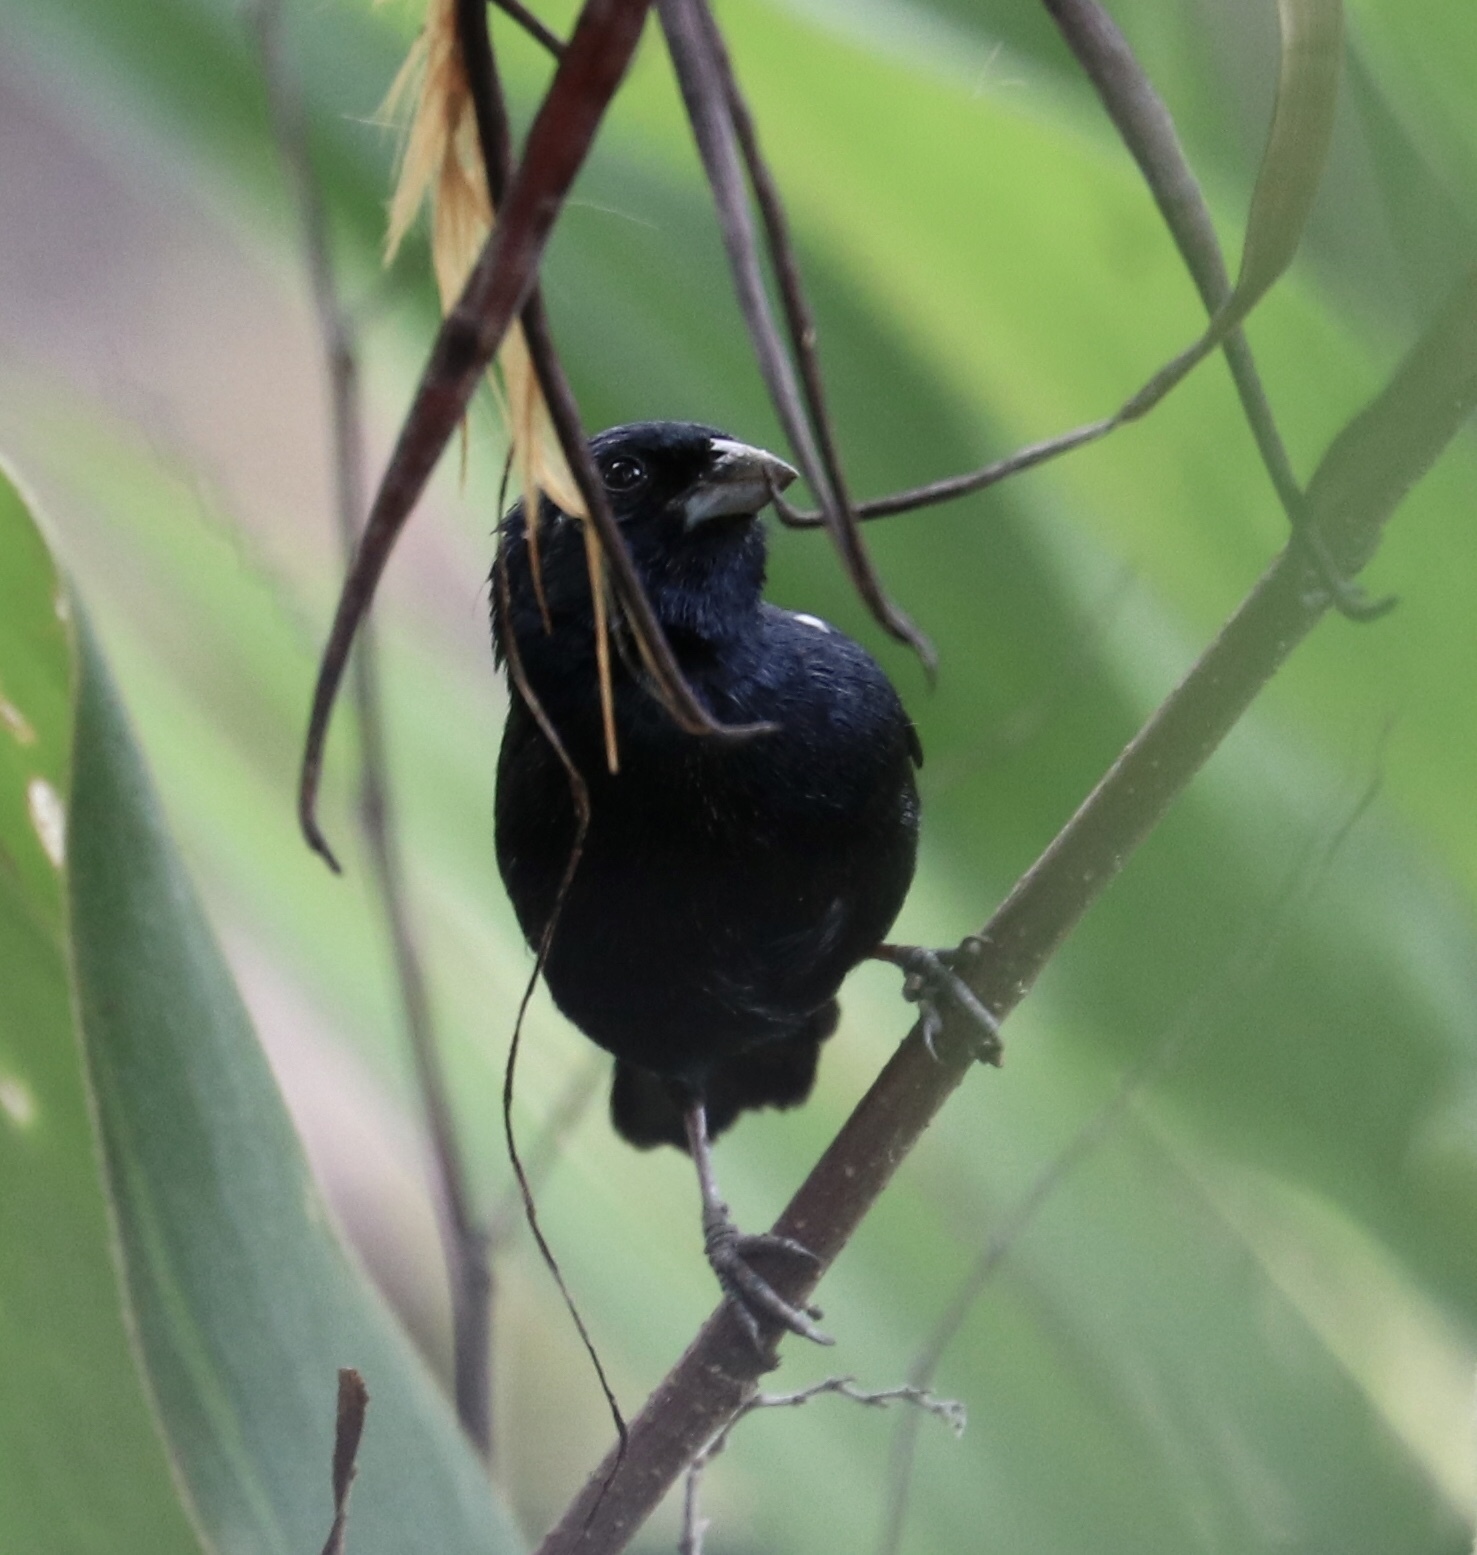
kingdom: Animalia
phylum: Chordata
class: Aves
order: Passeriformes
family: Thraupidae
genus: Volatinia
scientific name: Volatinia jacarina
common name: Blue-black grassquit
